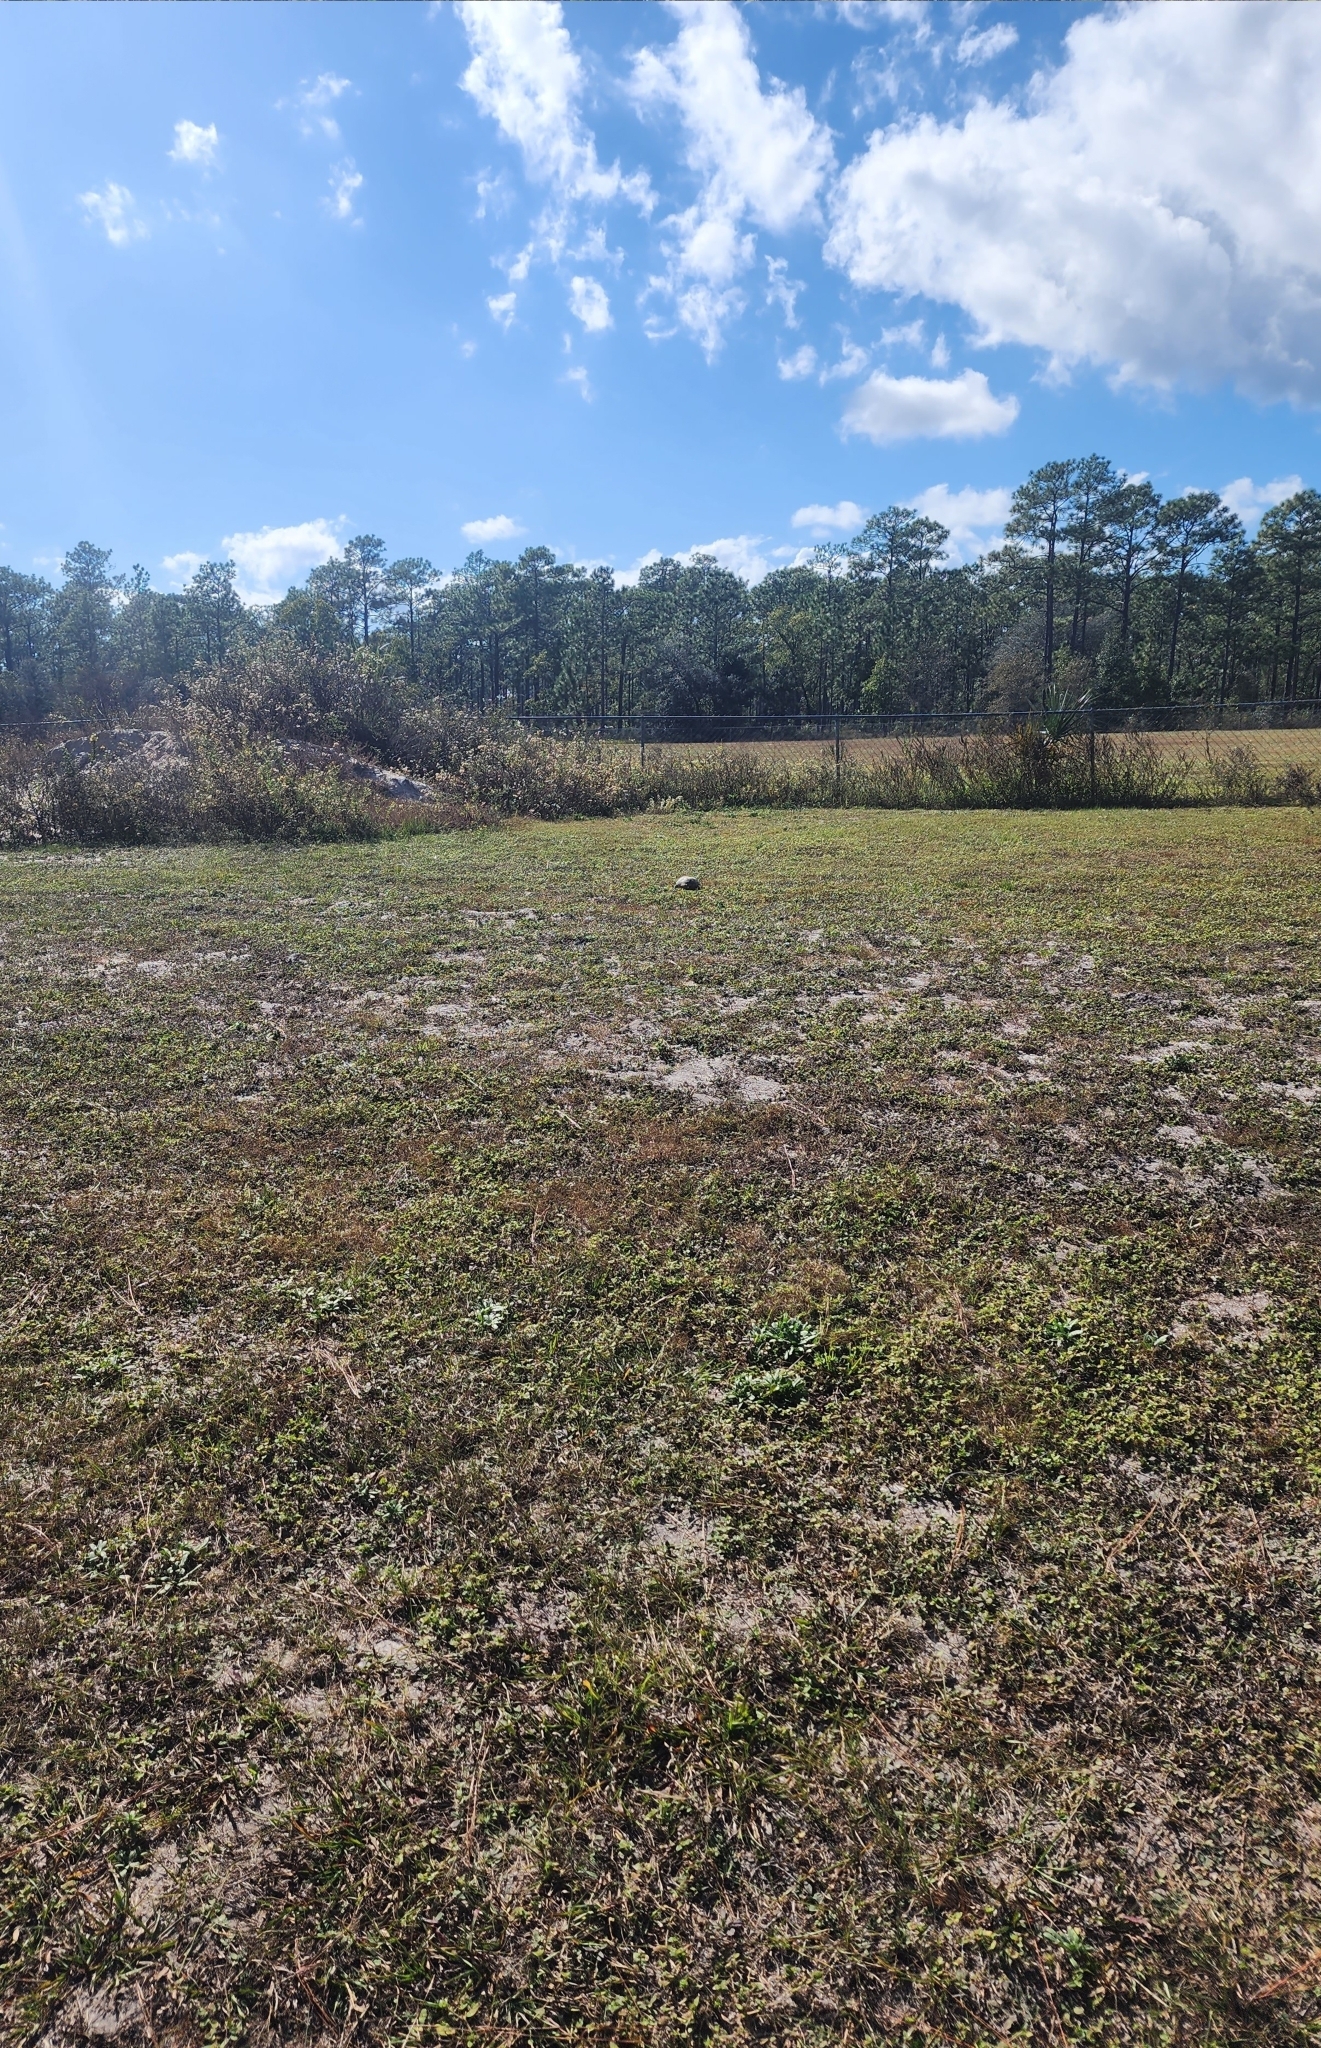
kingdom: Animalia
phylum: Chordata
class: Testudines
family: Testudinidae
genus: Gopherus
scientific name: Gopherus polyphemus
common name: Florida gopher tortoise
